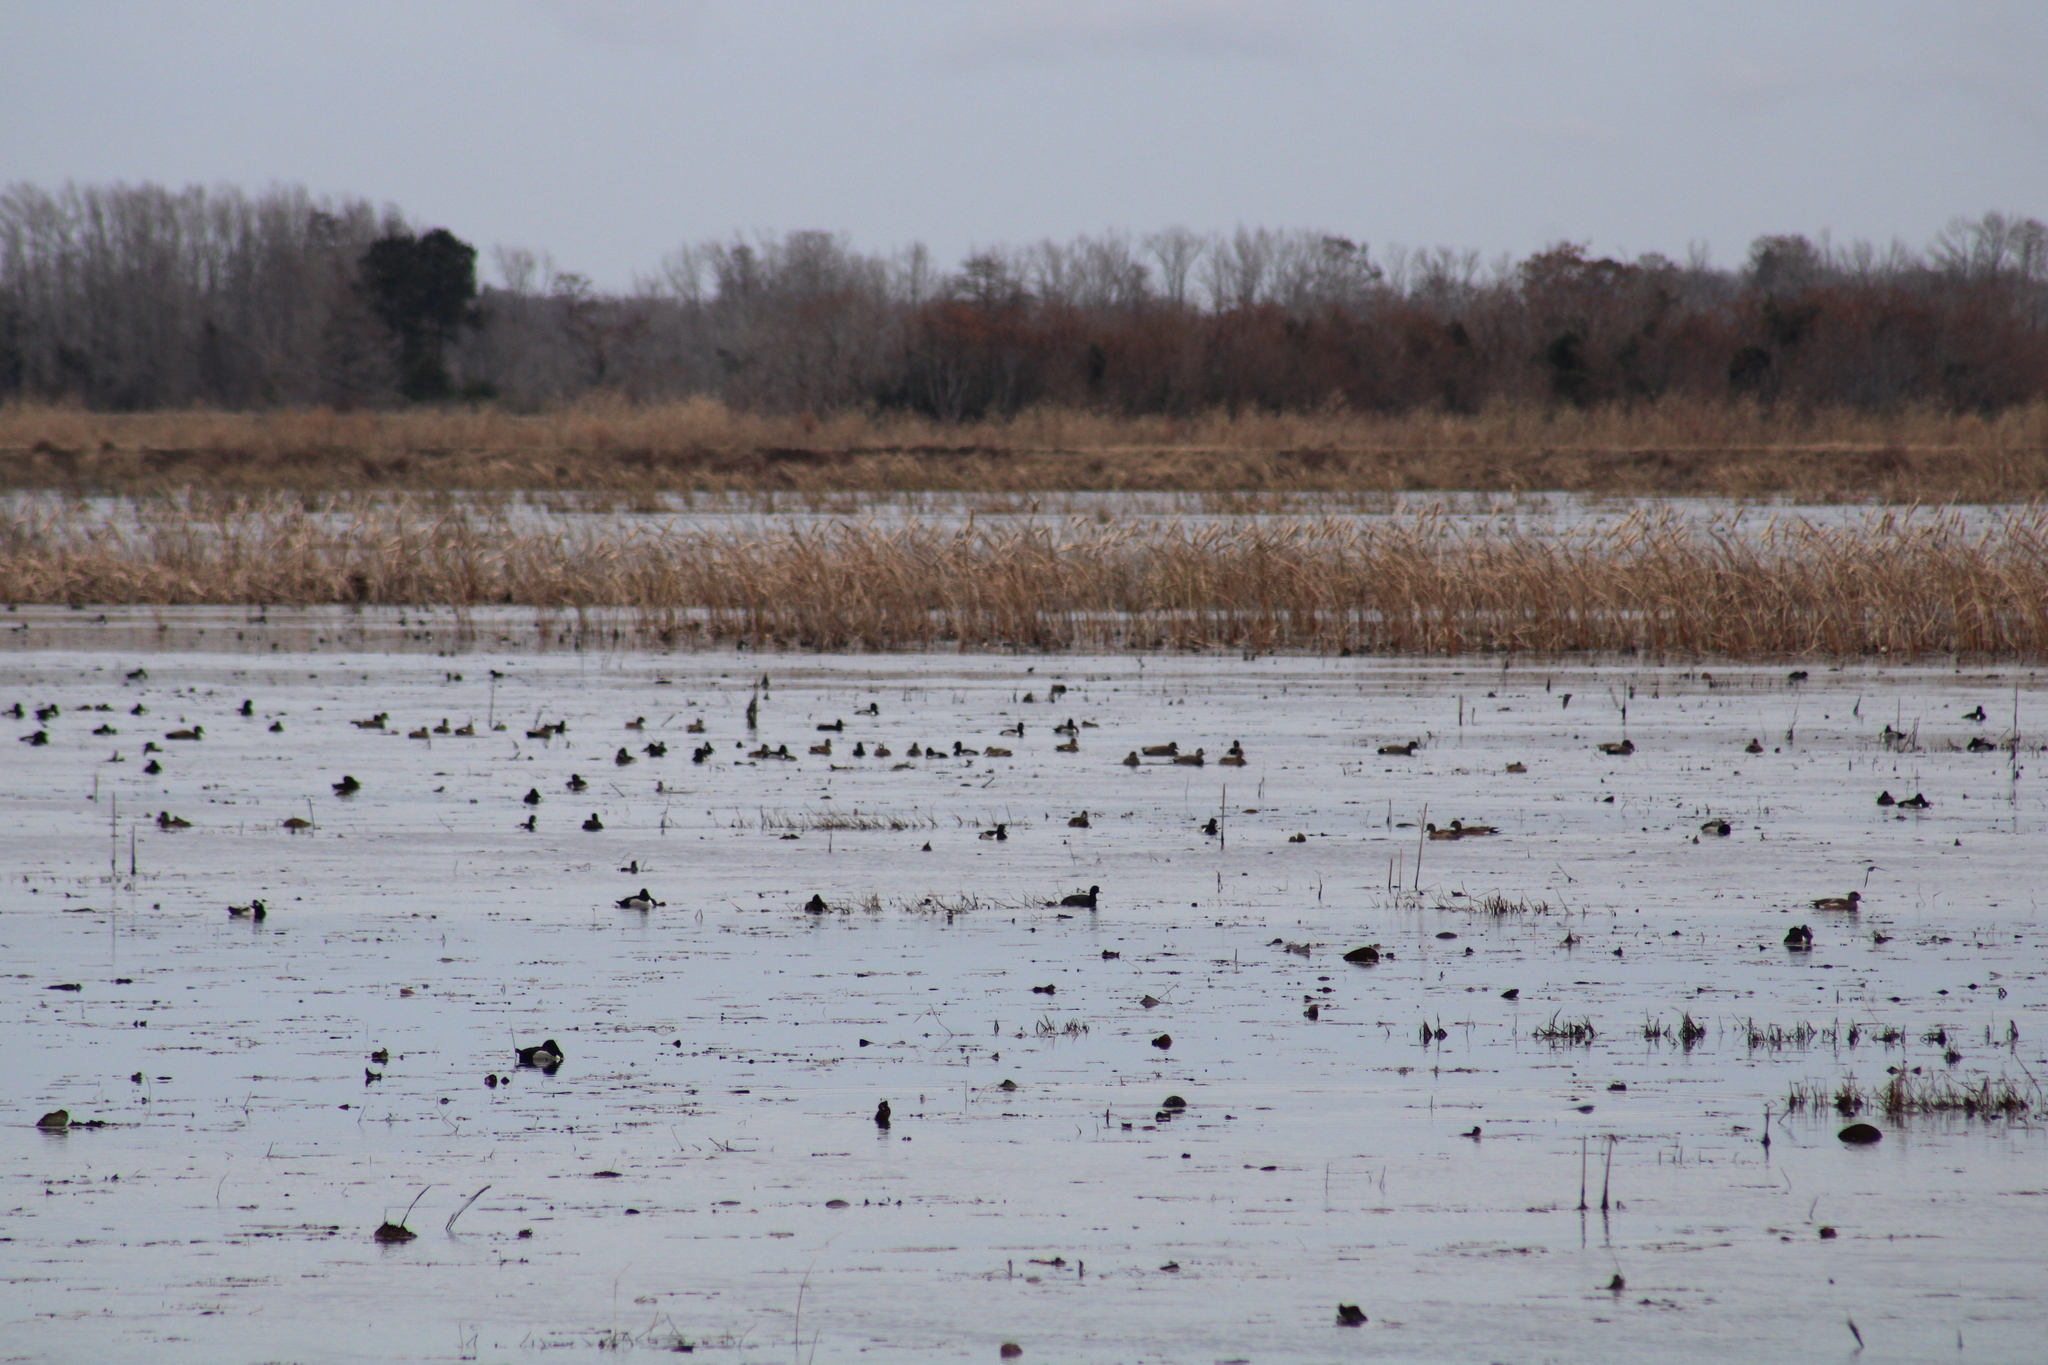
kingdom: Animalia
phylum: Chordata
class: Aves
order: Anseriformes
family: Anatidae
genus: Aythya
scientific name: Aythya collaris
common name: Ring-necked duck
